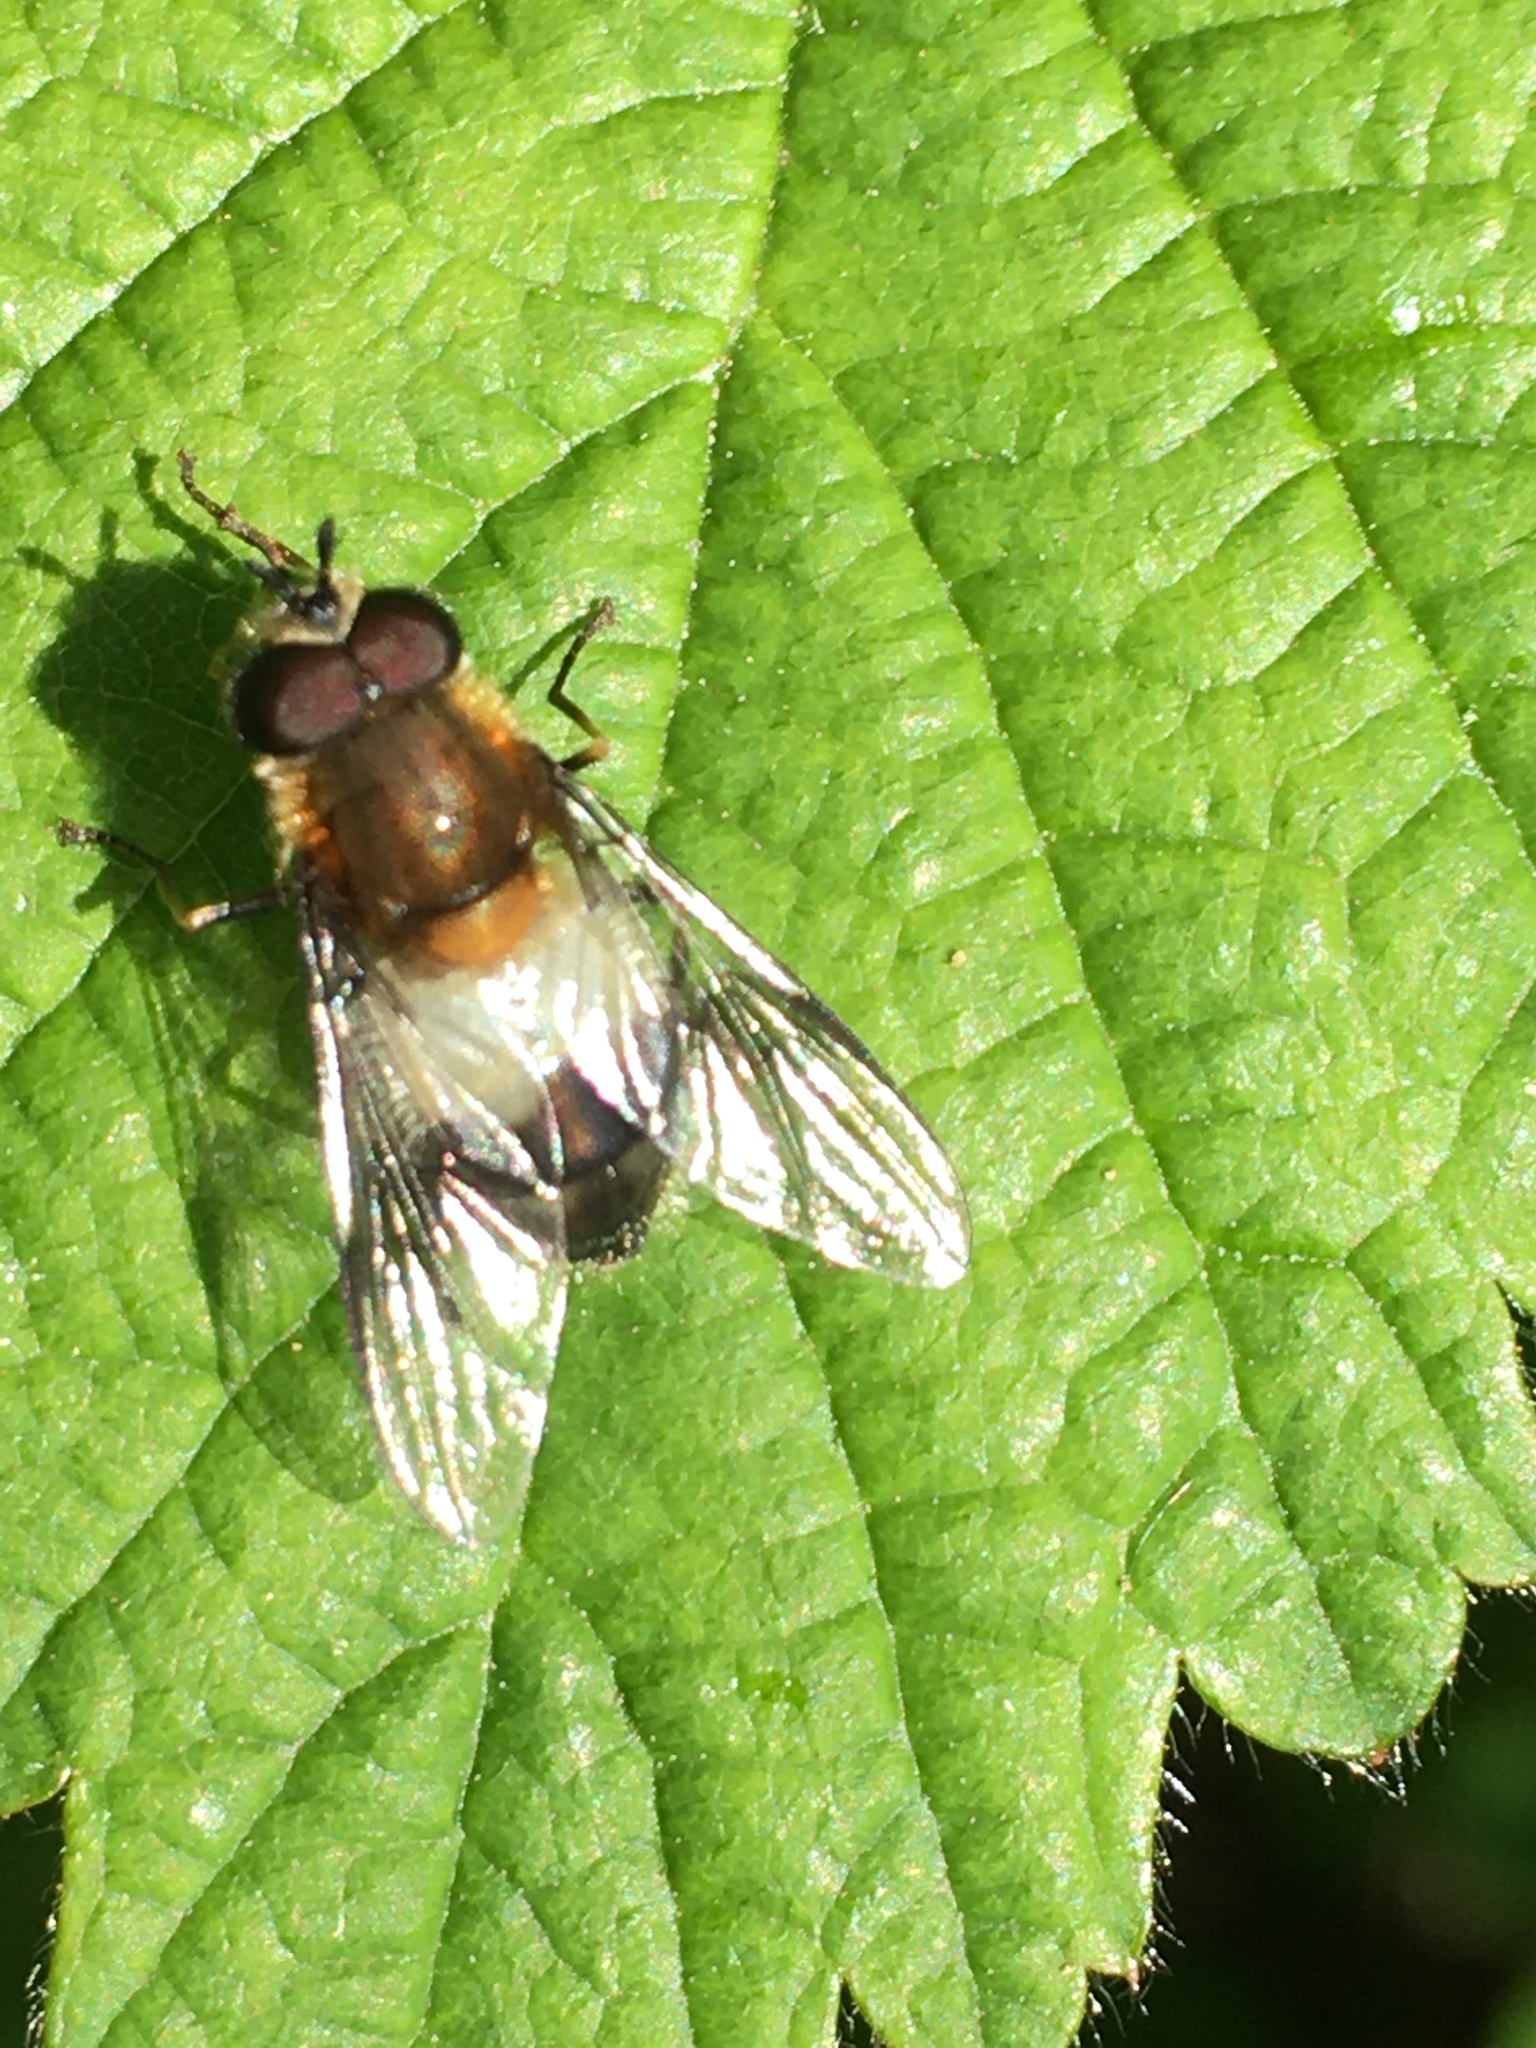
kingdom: Animalia
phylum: Arthropoda
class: Insecta
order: Diptera
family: Syrphidae
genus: Leucozona
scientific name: Leucozona lucorum
